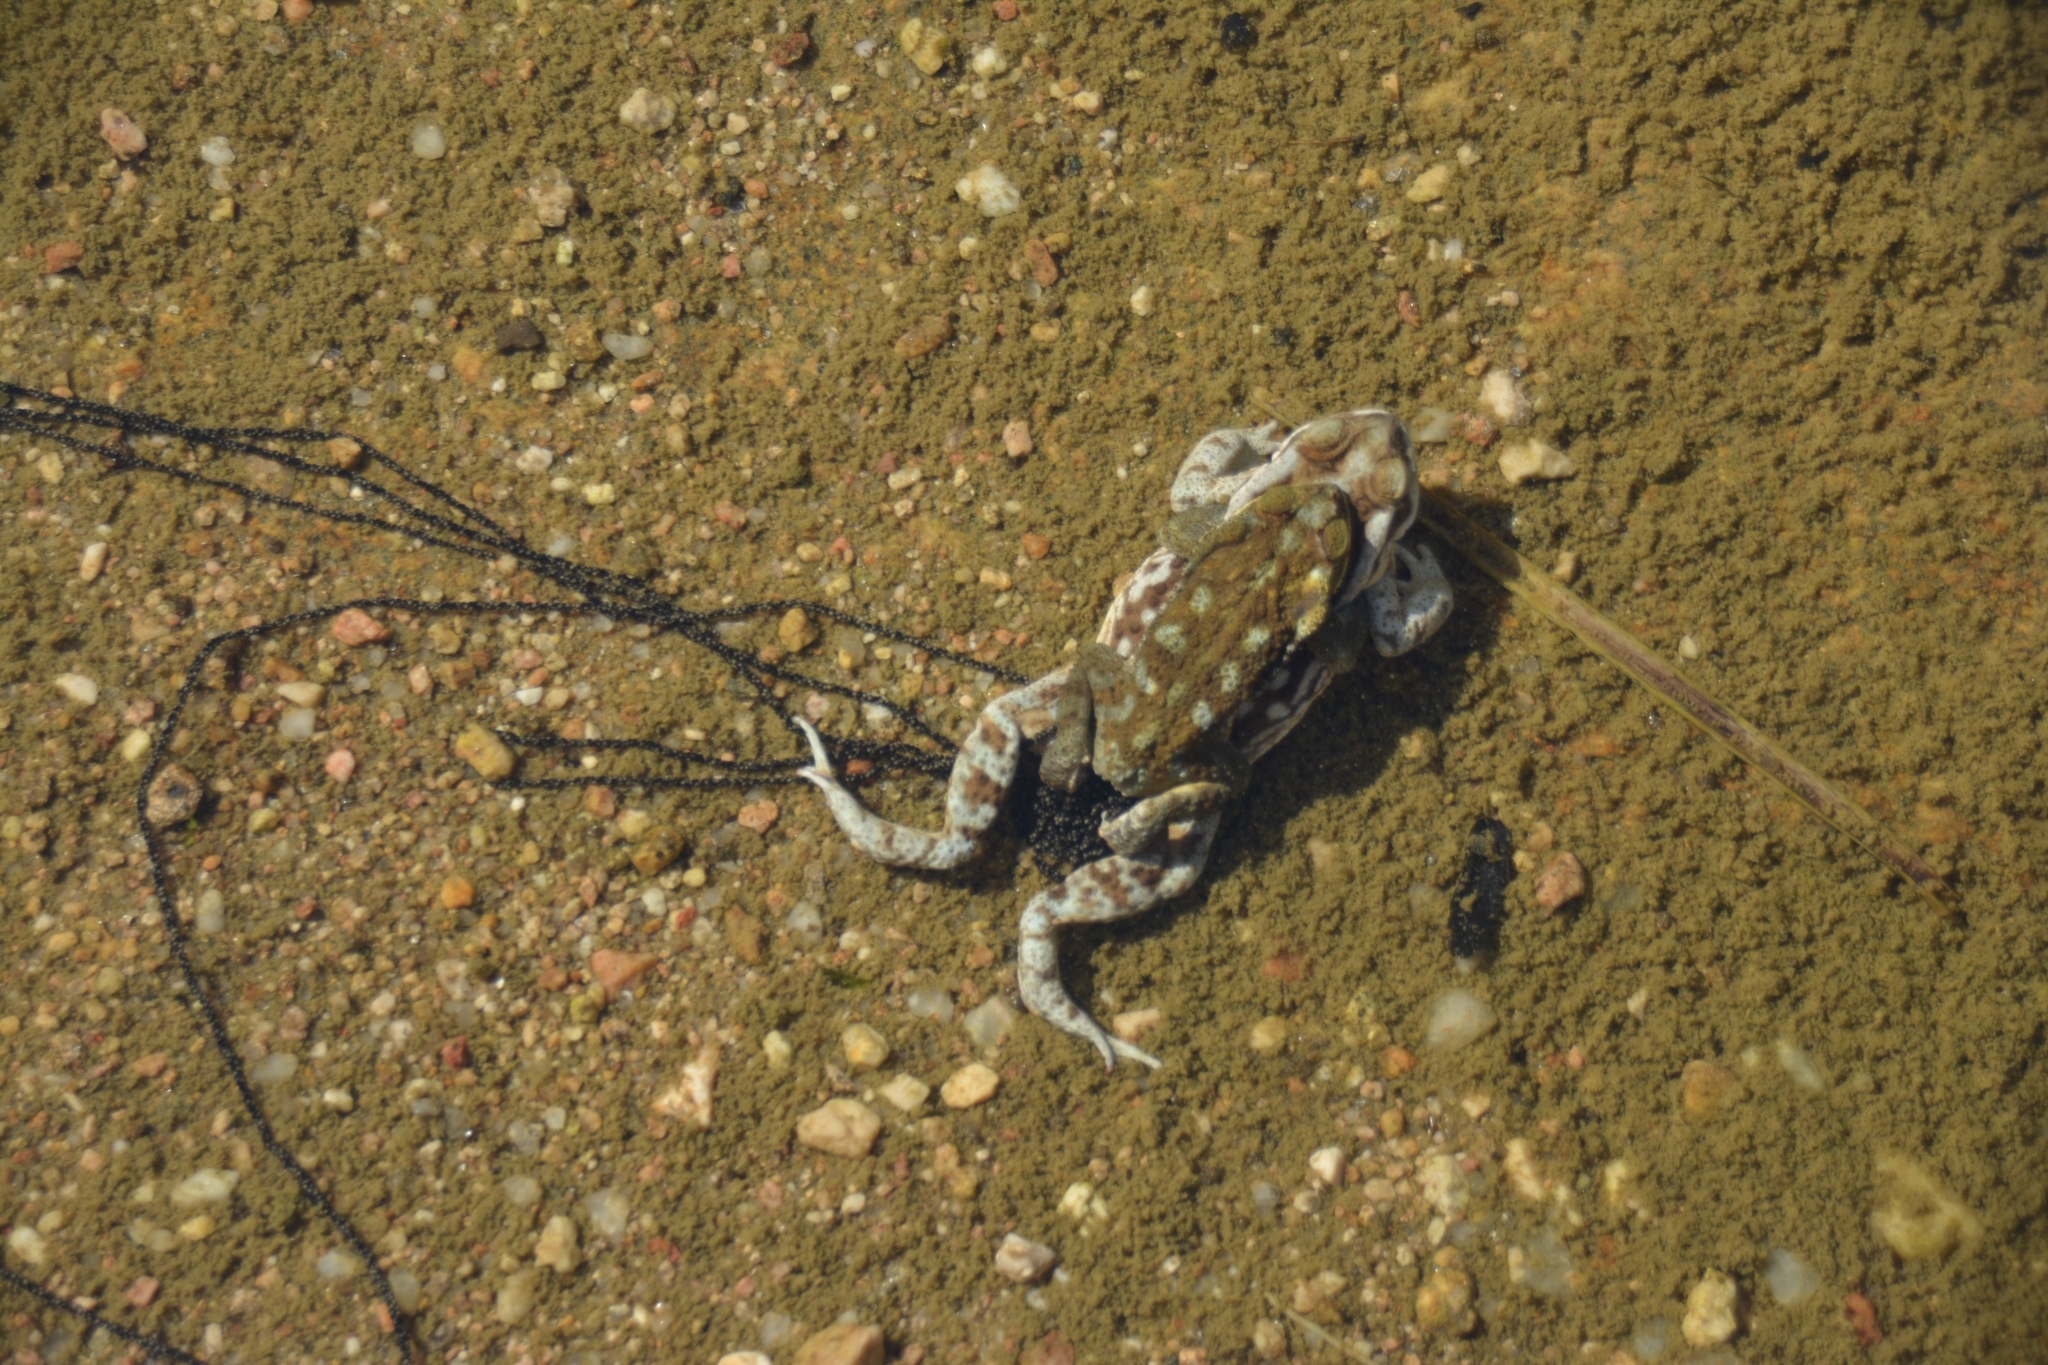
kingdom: Animalia
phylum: Chordata
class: Amphibia
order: Anura
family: Bufonidae
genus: Rhinella
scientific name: Rhinella arenarum
